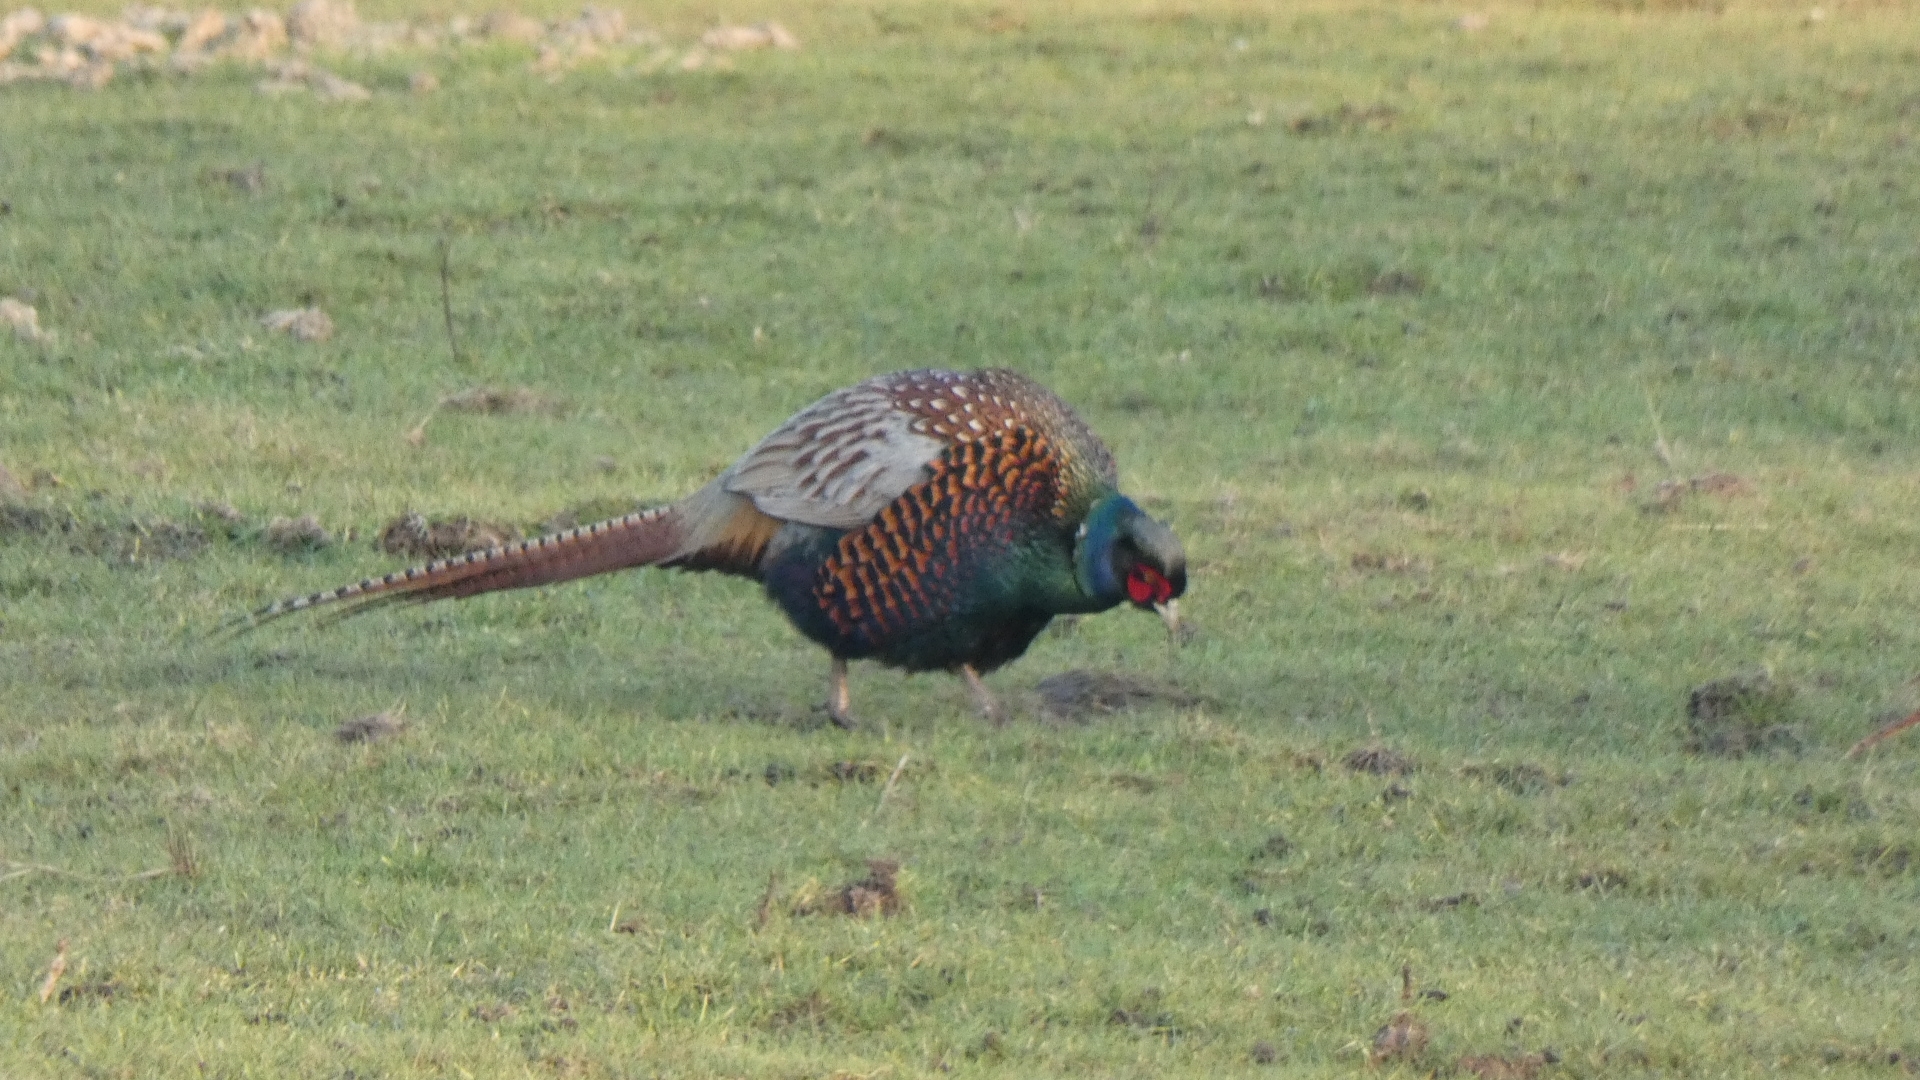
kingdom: Animalia
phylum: Chordata
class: Aves
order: Galliformes
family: Phasianidae
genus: Phasianus
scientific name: Phasianus colchicus
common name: Common pheasant
